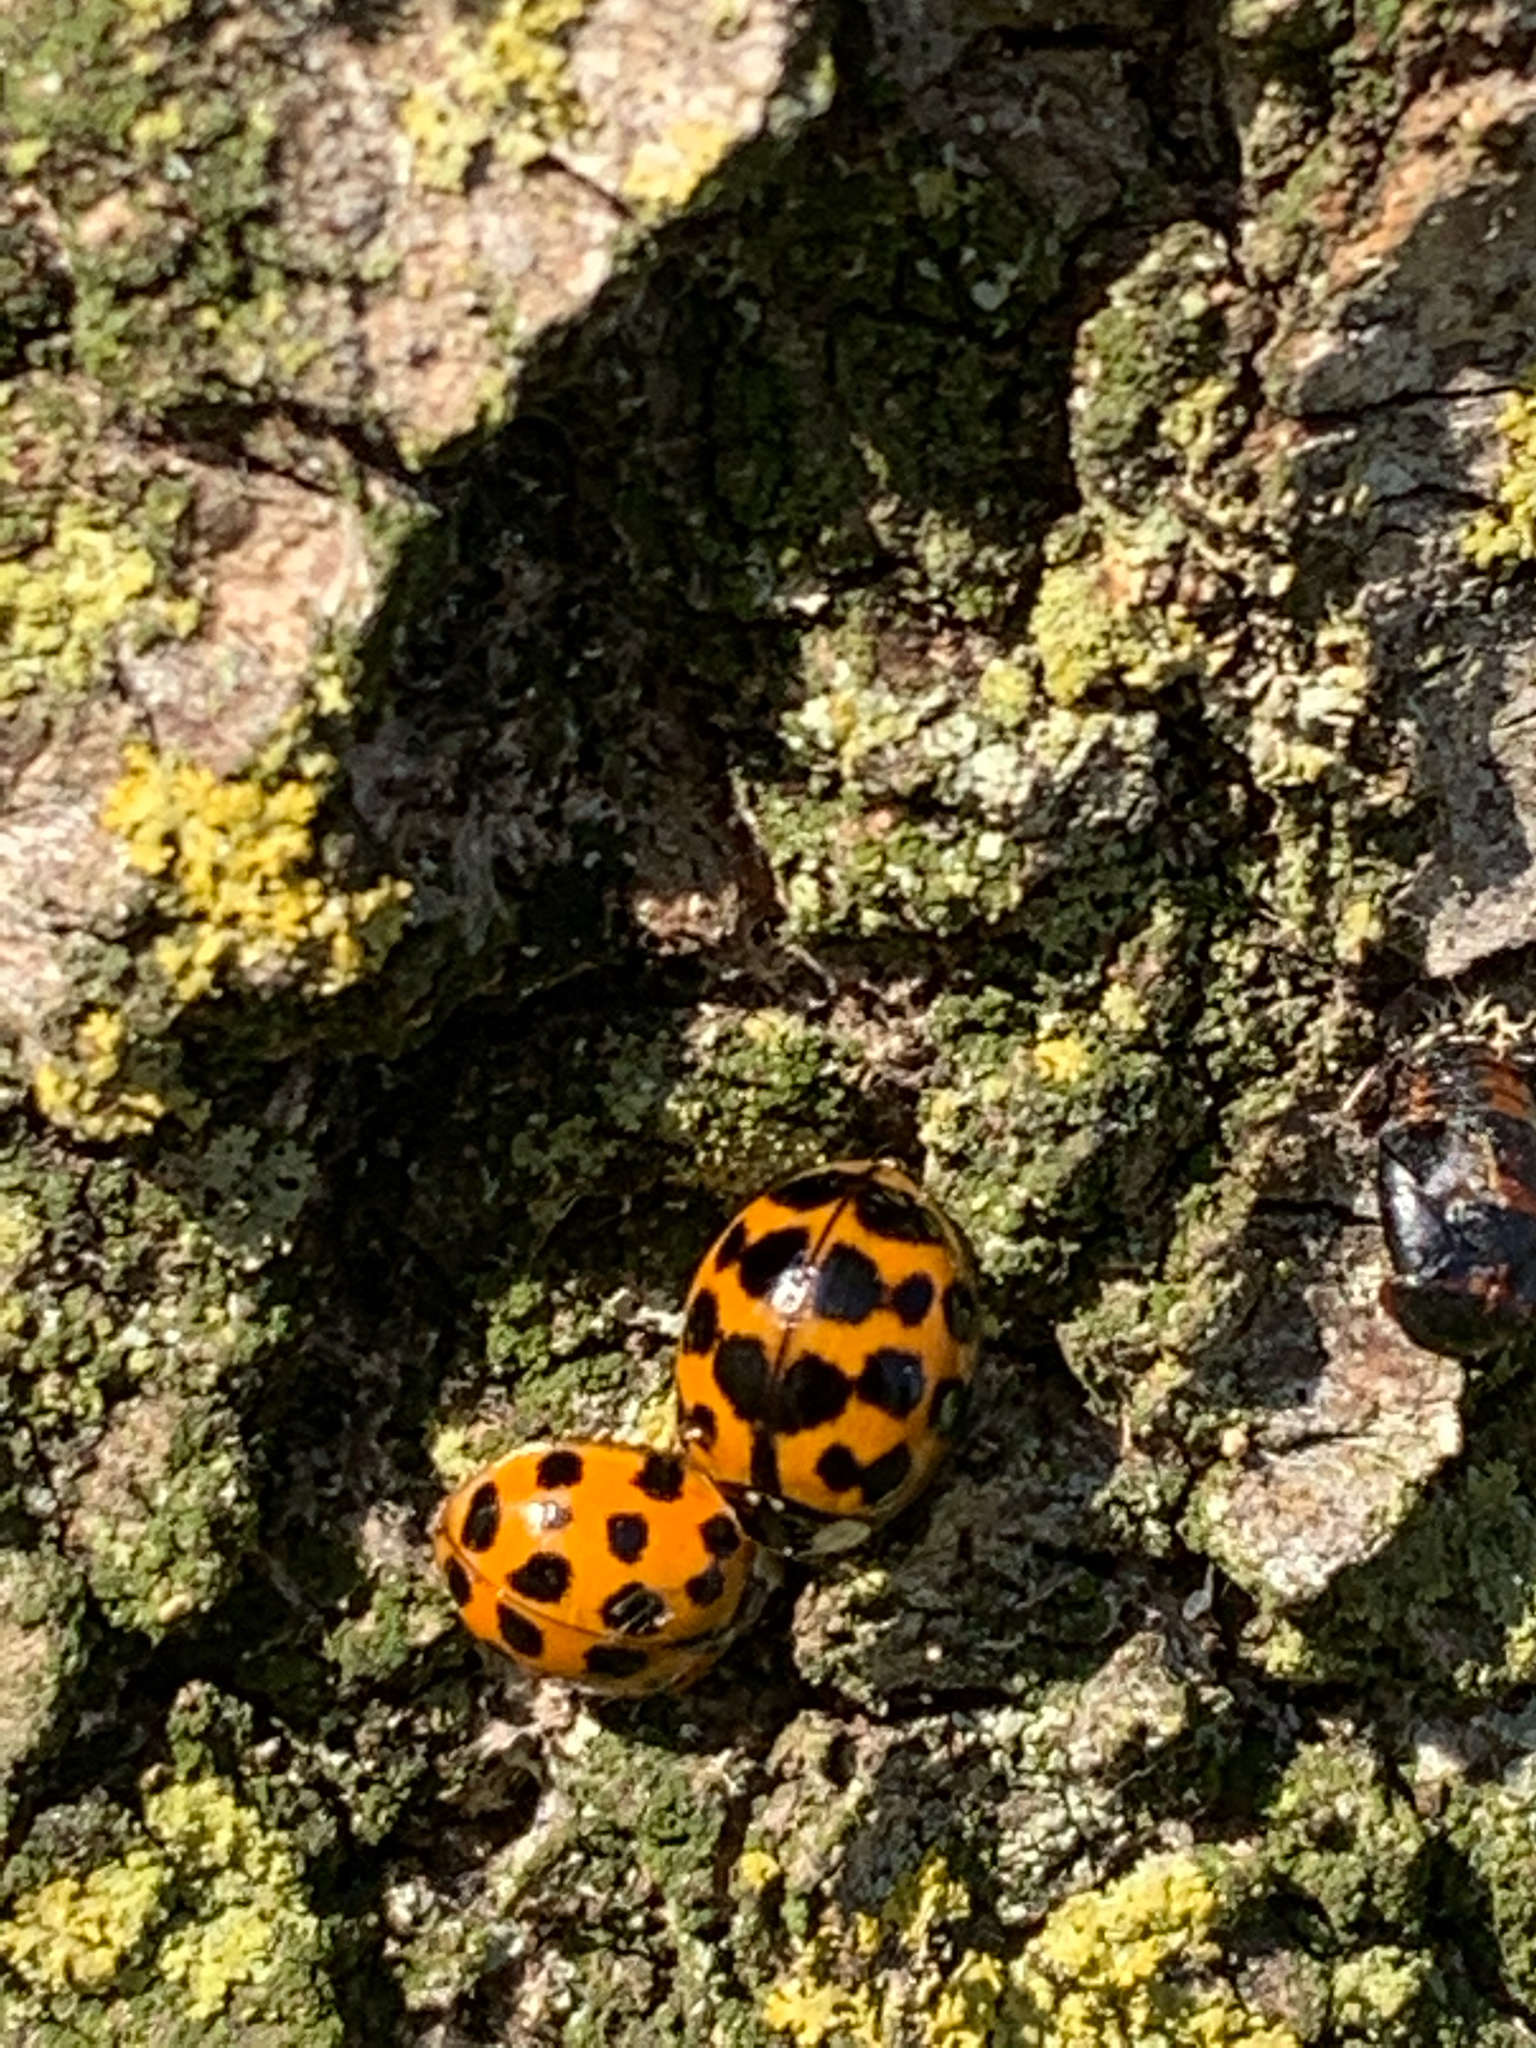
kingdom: Animalia
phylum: Arthropoda
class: Insecta
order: Coleoptera
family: Coccinellidae
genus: Harmonia
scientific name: Harmonia axyridis
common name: Harlequin ladybird
